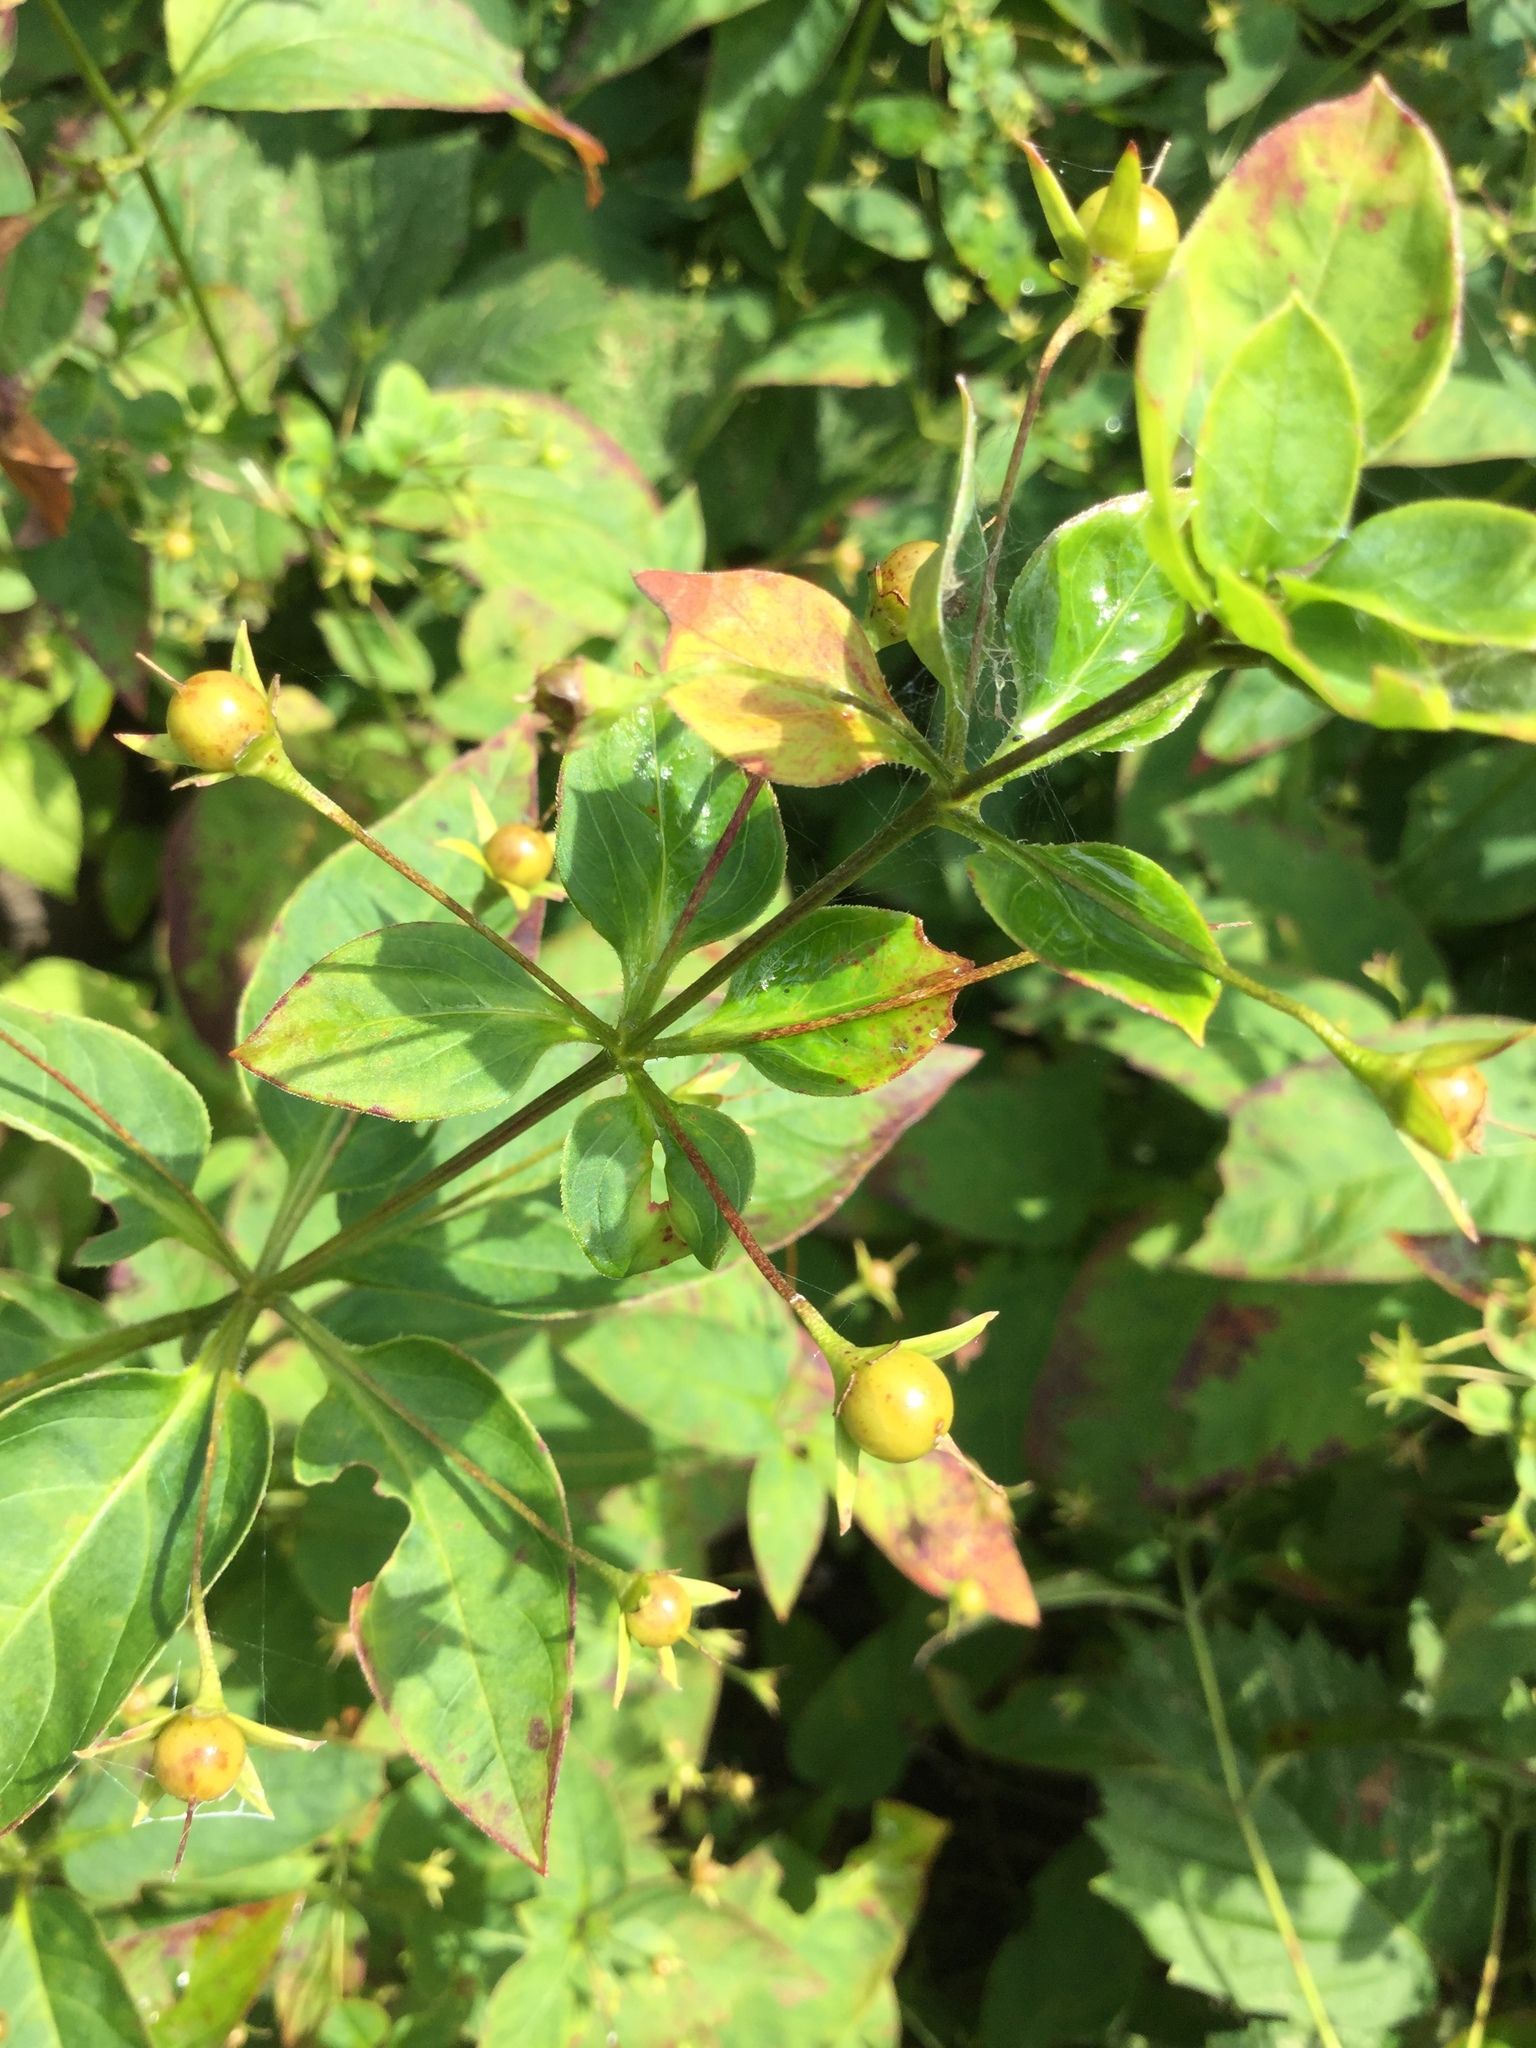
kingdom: Plantae
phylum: Tracheophyta
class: Magnoliopsida
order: Ericales
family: Primulaceae
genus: Lysimachia
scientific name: Lysimachia ciliata
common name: Fringed loosestrife
